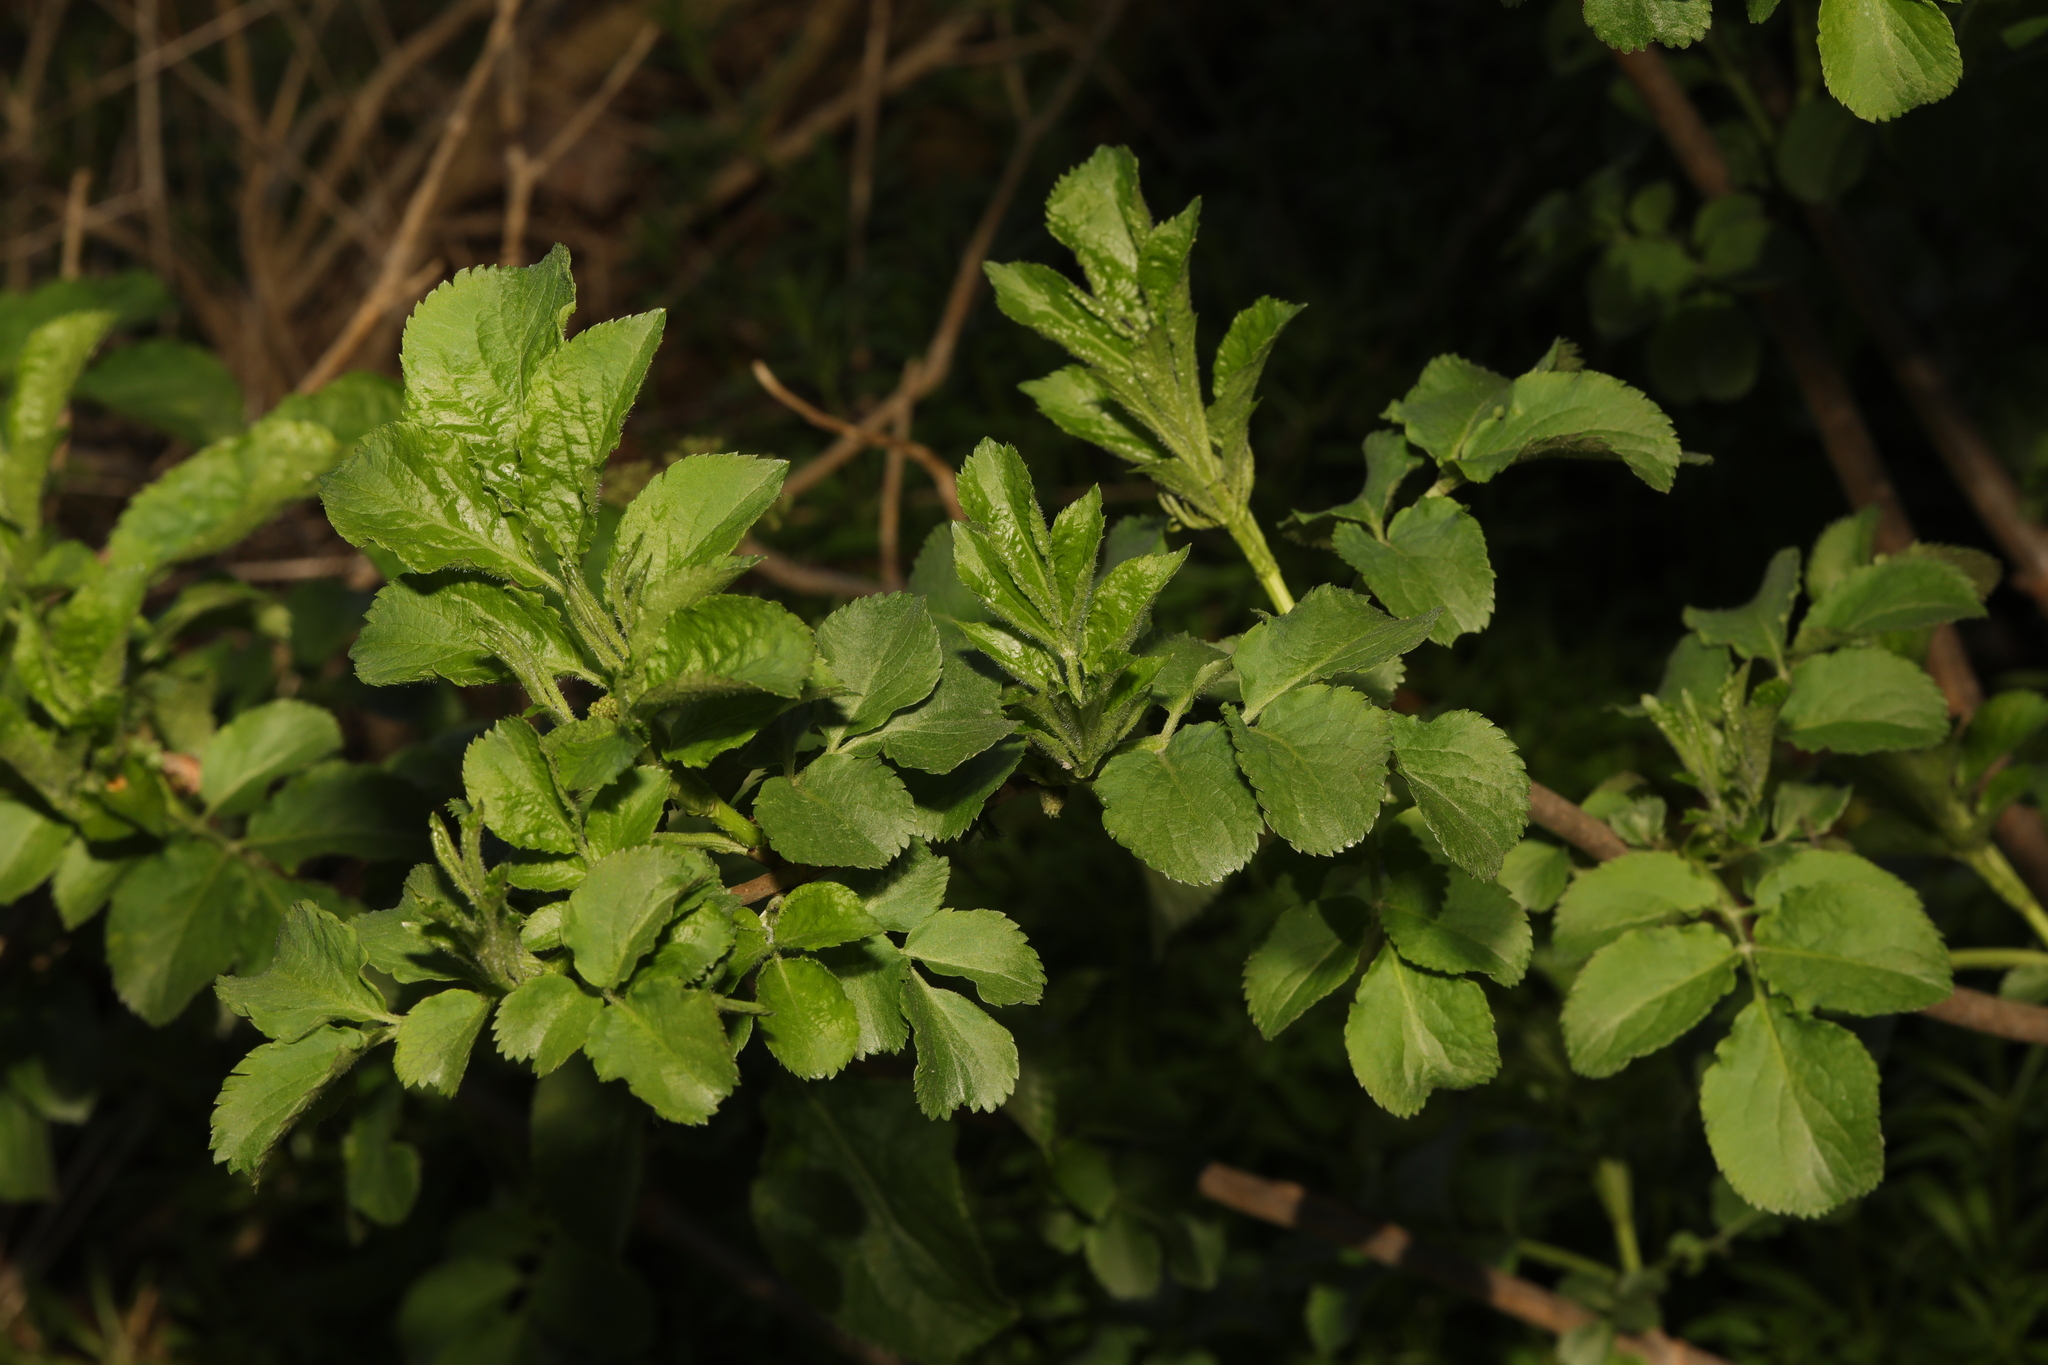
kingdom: Plantae
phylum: Tracheophyta
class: Magnoliopsida
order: Dipsacales
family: Viburnaceae
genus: Sambucus
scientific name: Sambucus nigra
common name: Elder
